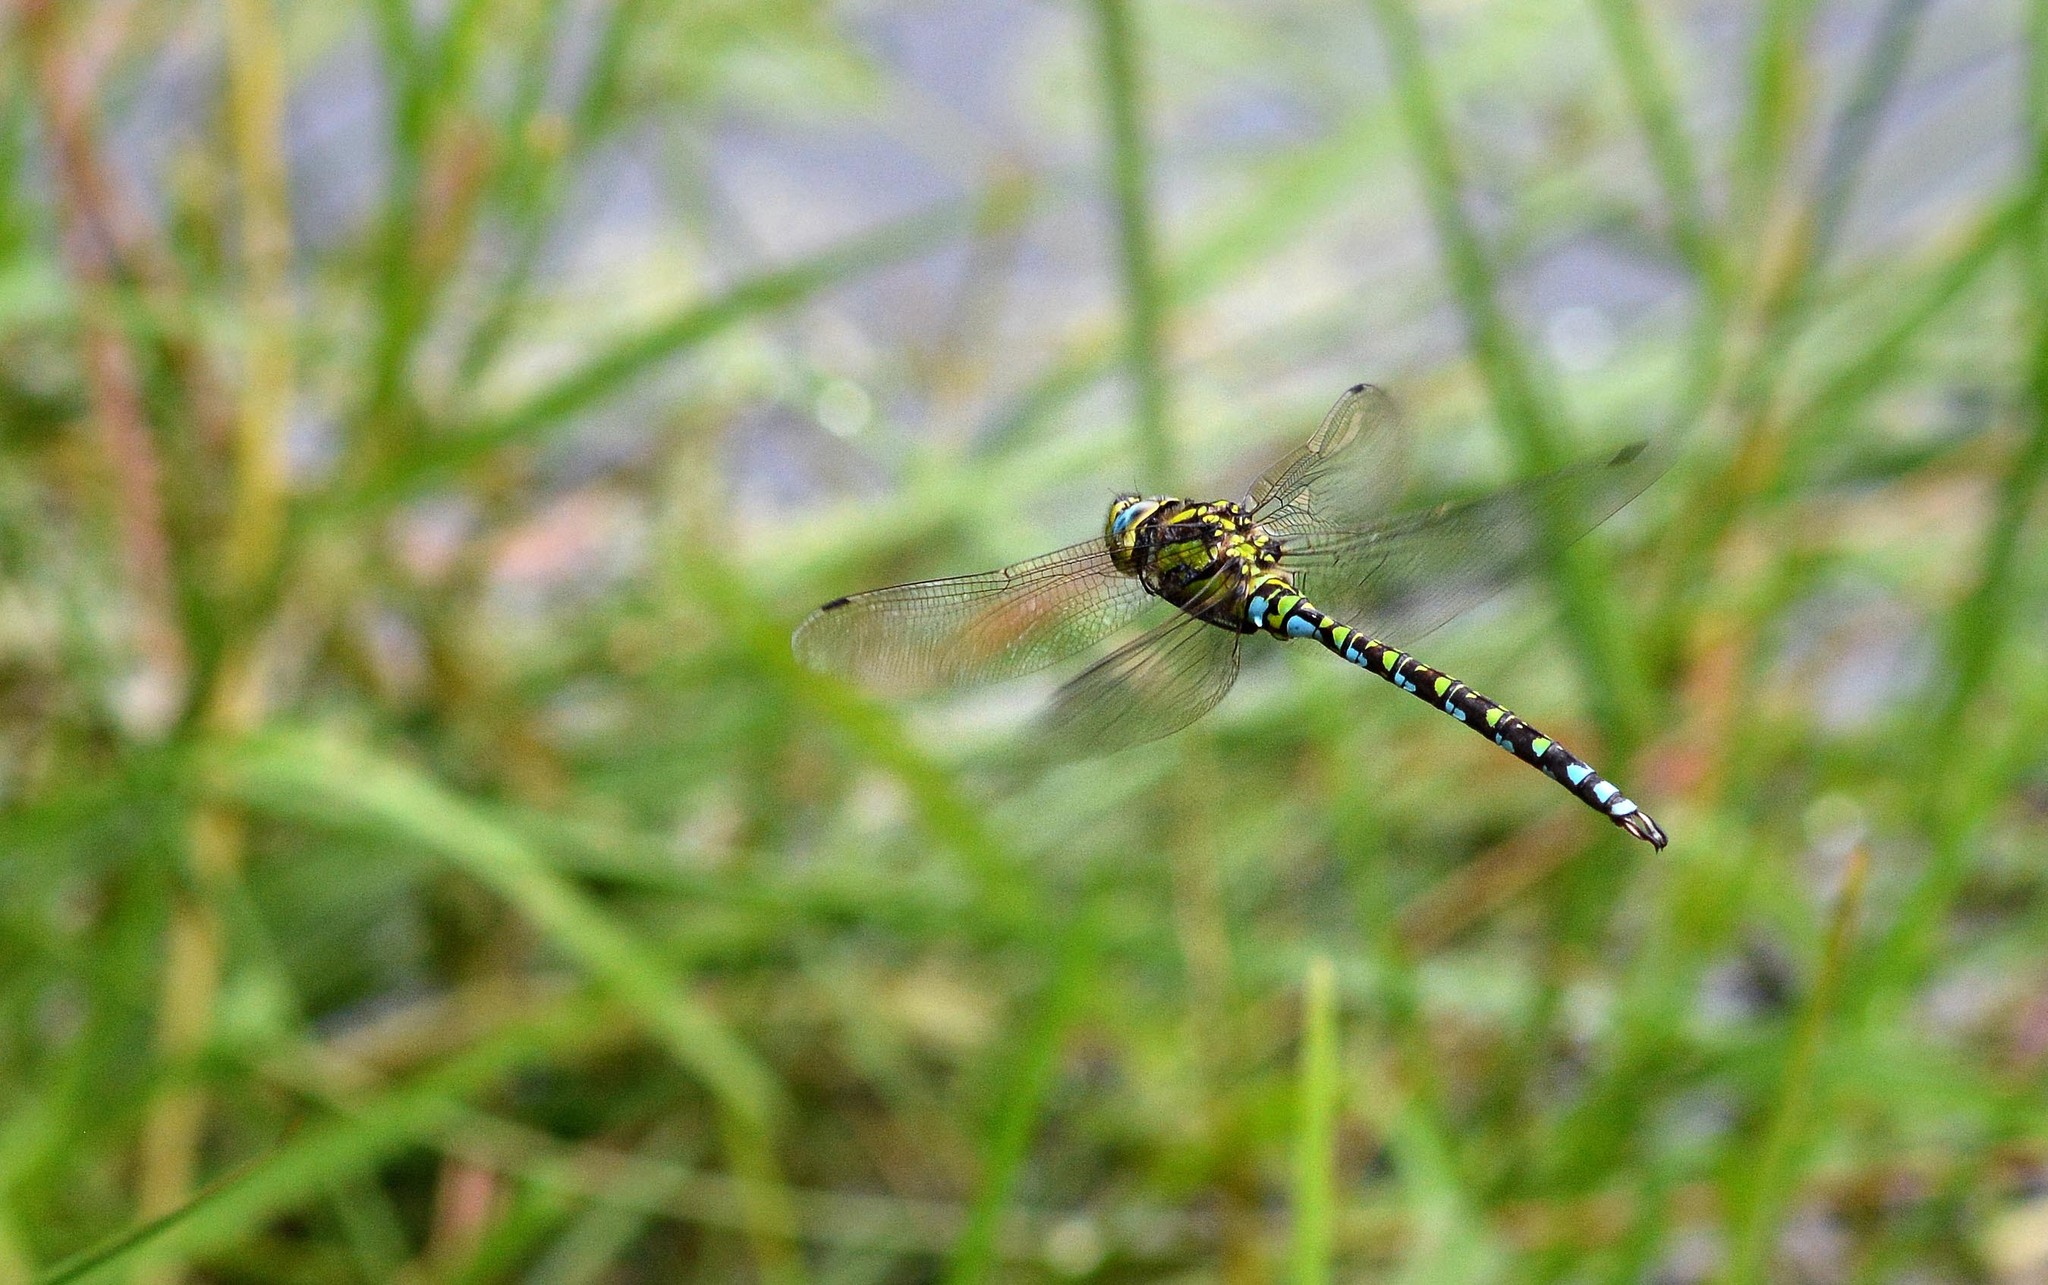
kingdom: Animalia
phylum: Arthropoda
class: Insecta
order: Odonata
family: Aeshnidae
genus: Aeshna
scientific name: Aeshna cyanea
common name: Southern hawker
